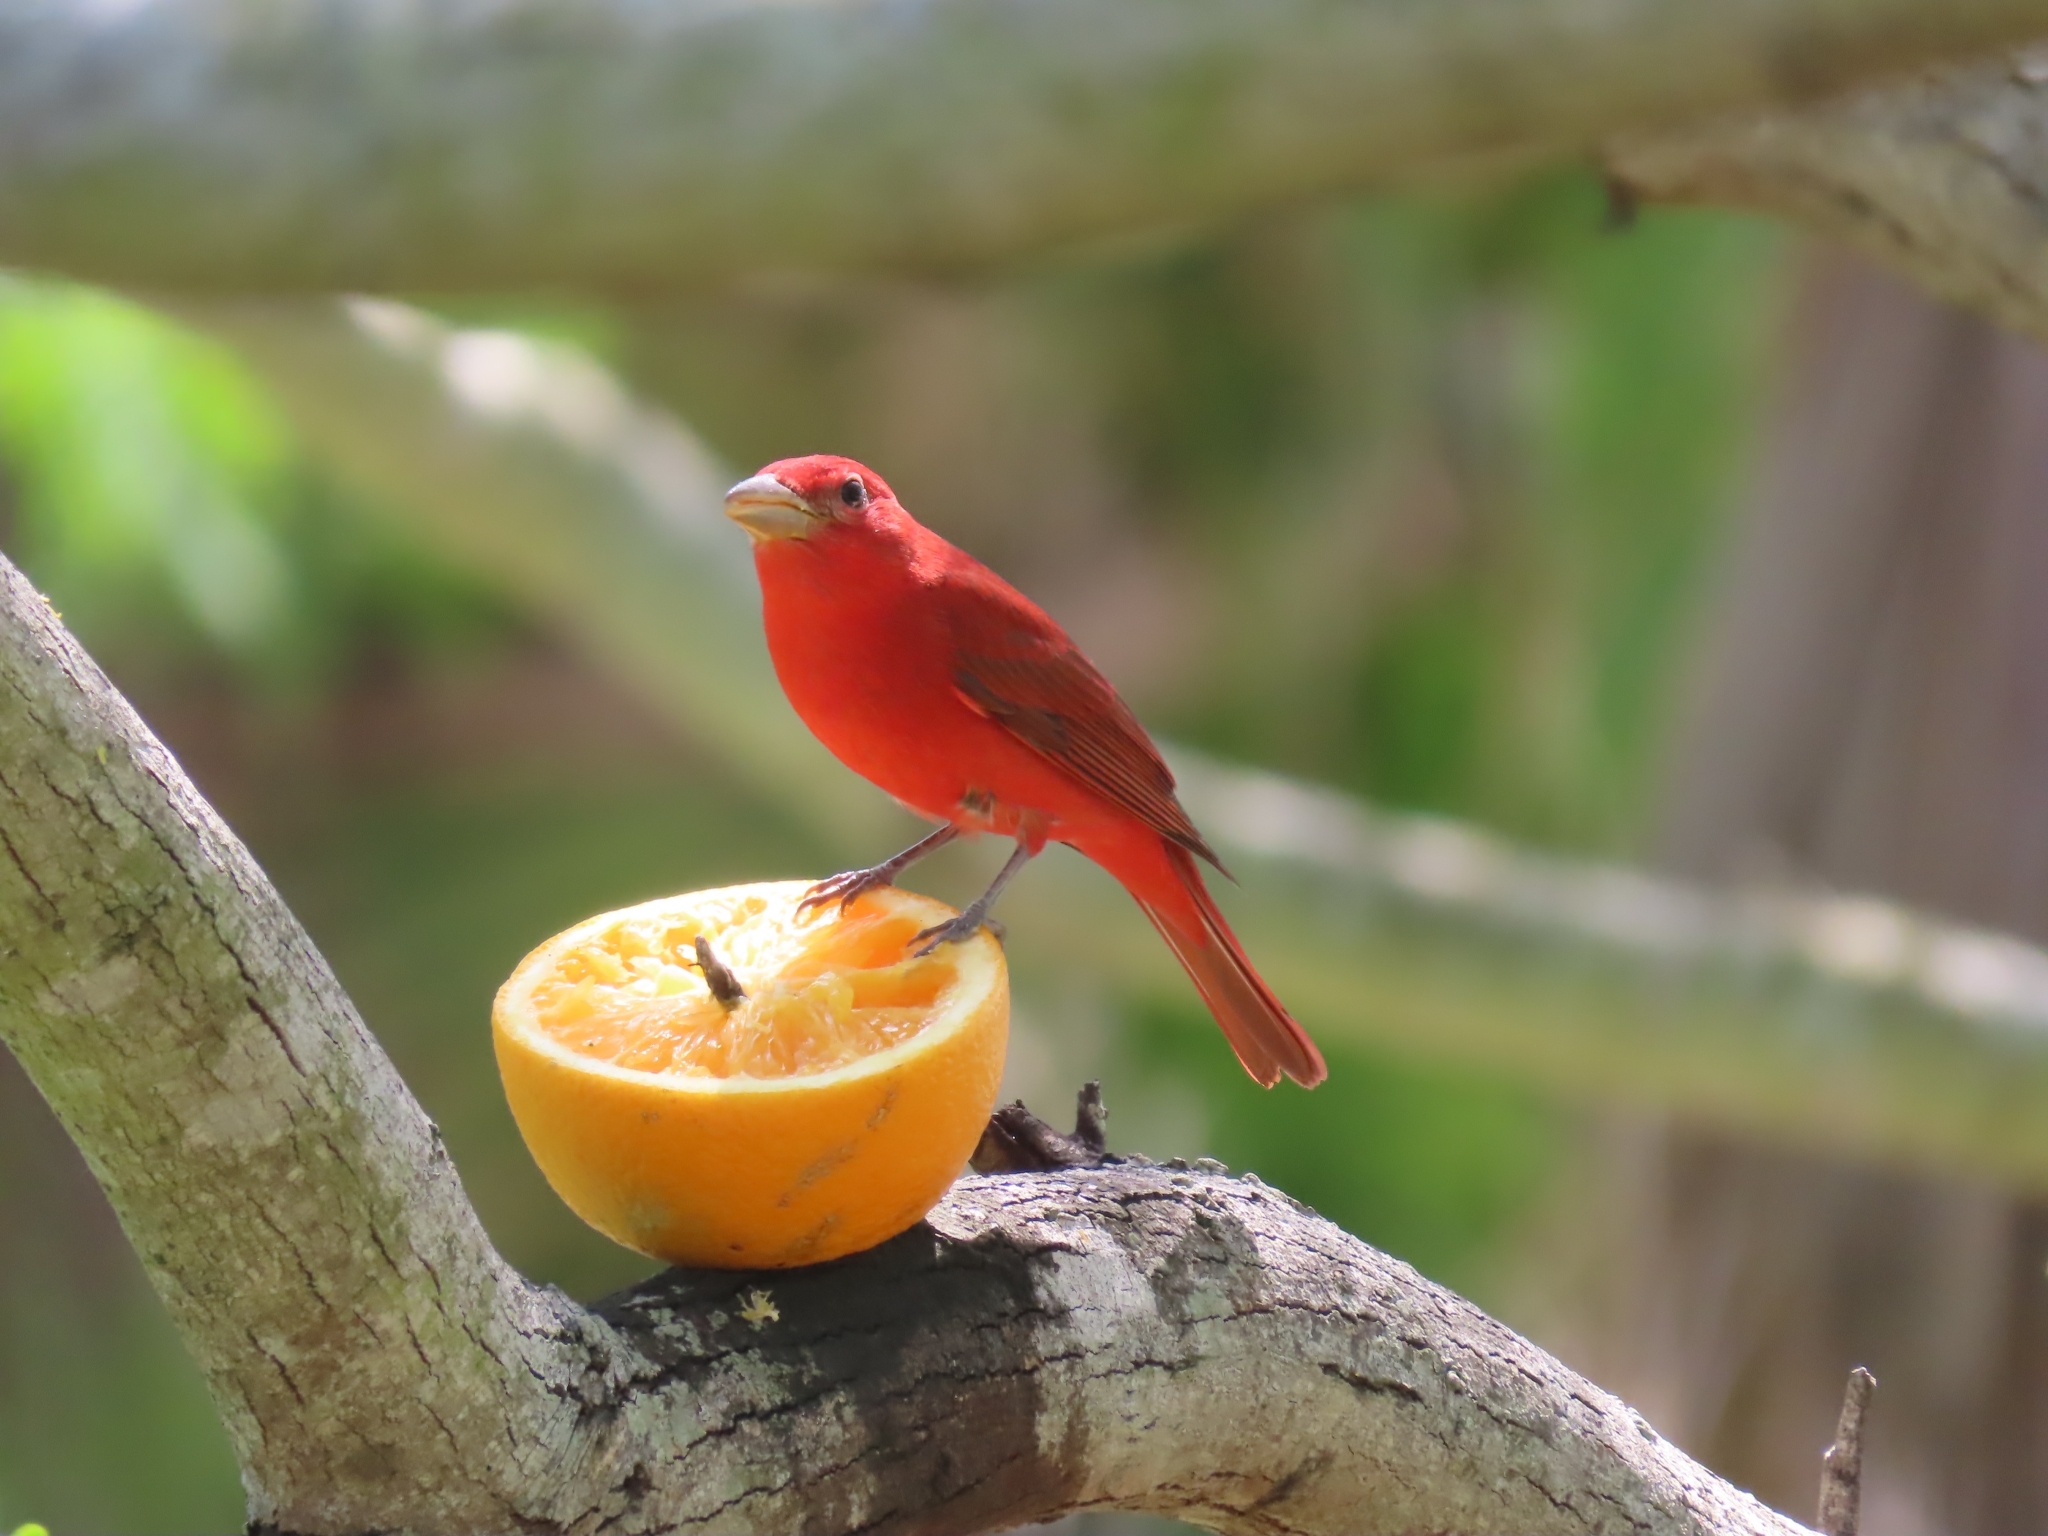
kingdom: Animalia
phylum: Chordata
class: Aves
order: Passeriformes
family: Cardinalidae
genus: Piranga
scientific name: Piranga rubra
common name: Summer tanager
